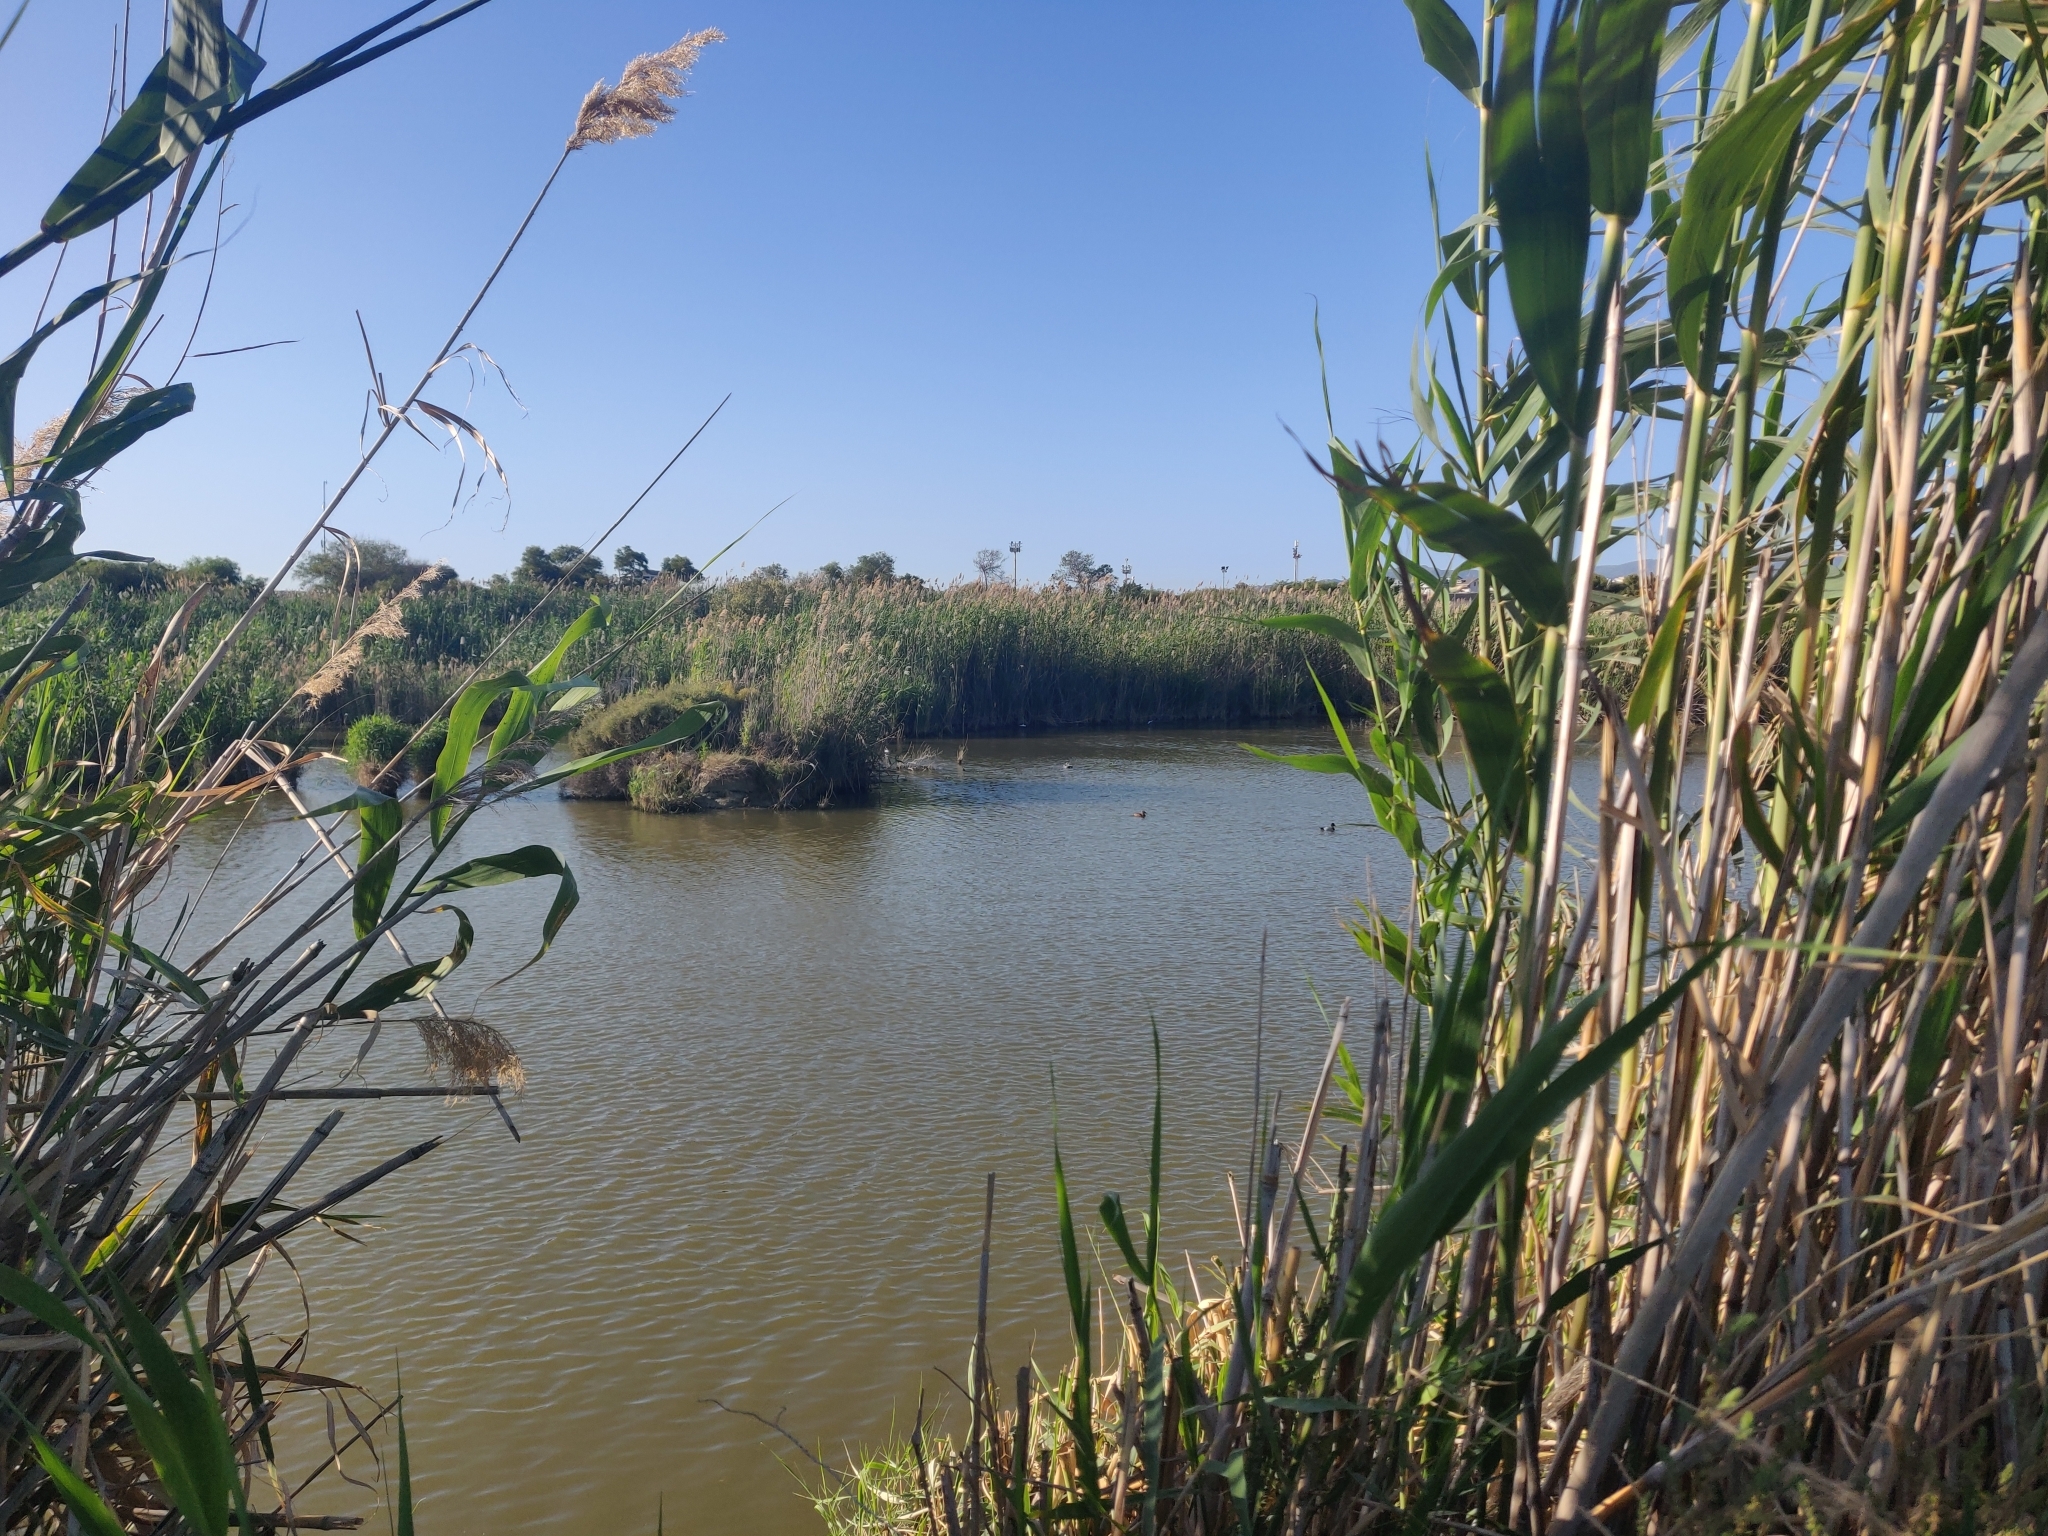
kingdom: Animalia
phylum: Chordata
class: Aves
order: Anseriformes
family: Anatidae
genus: Aythya
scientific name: Aythya ferina
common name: Common pochard
